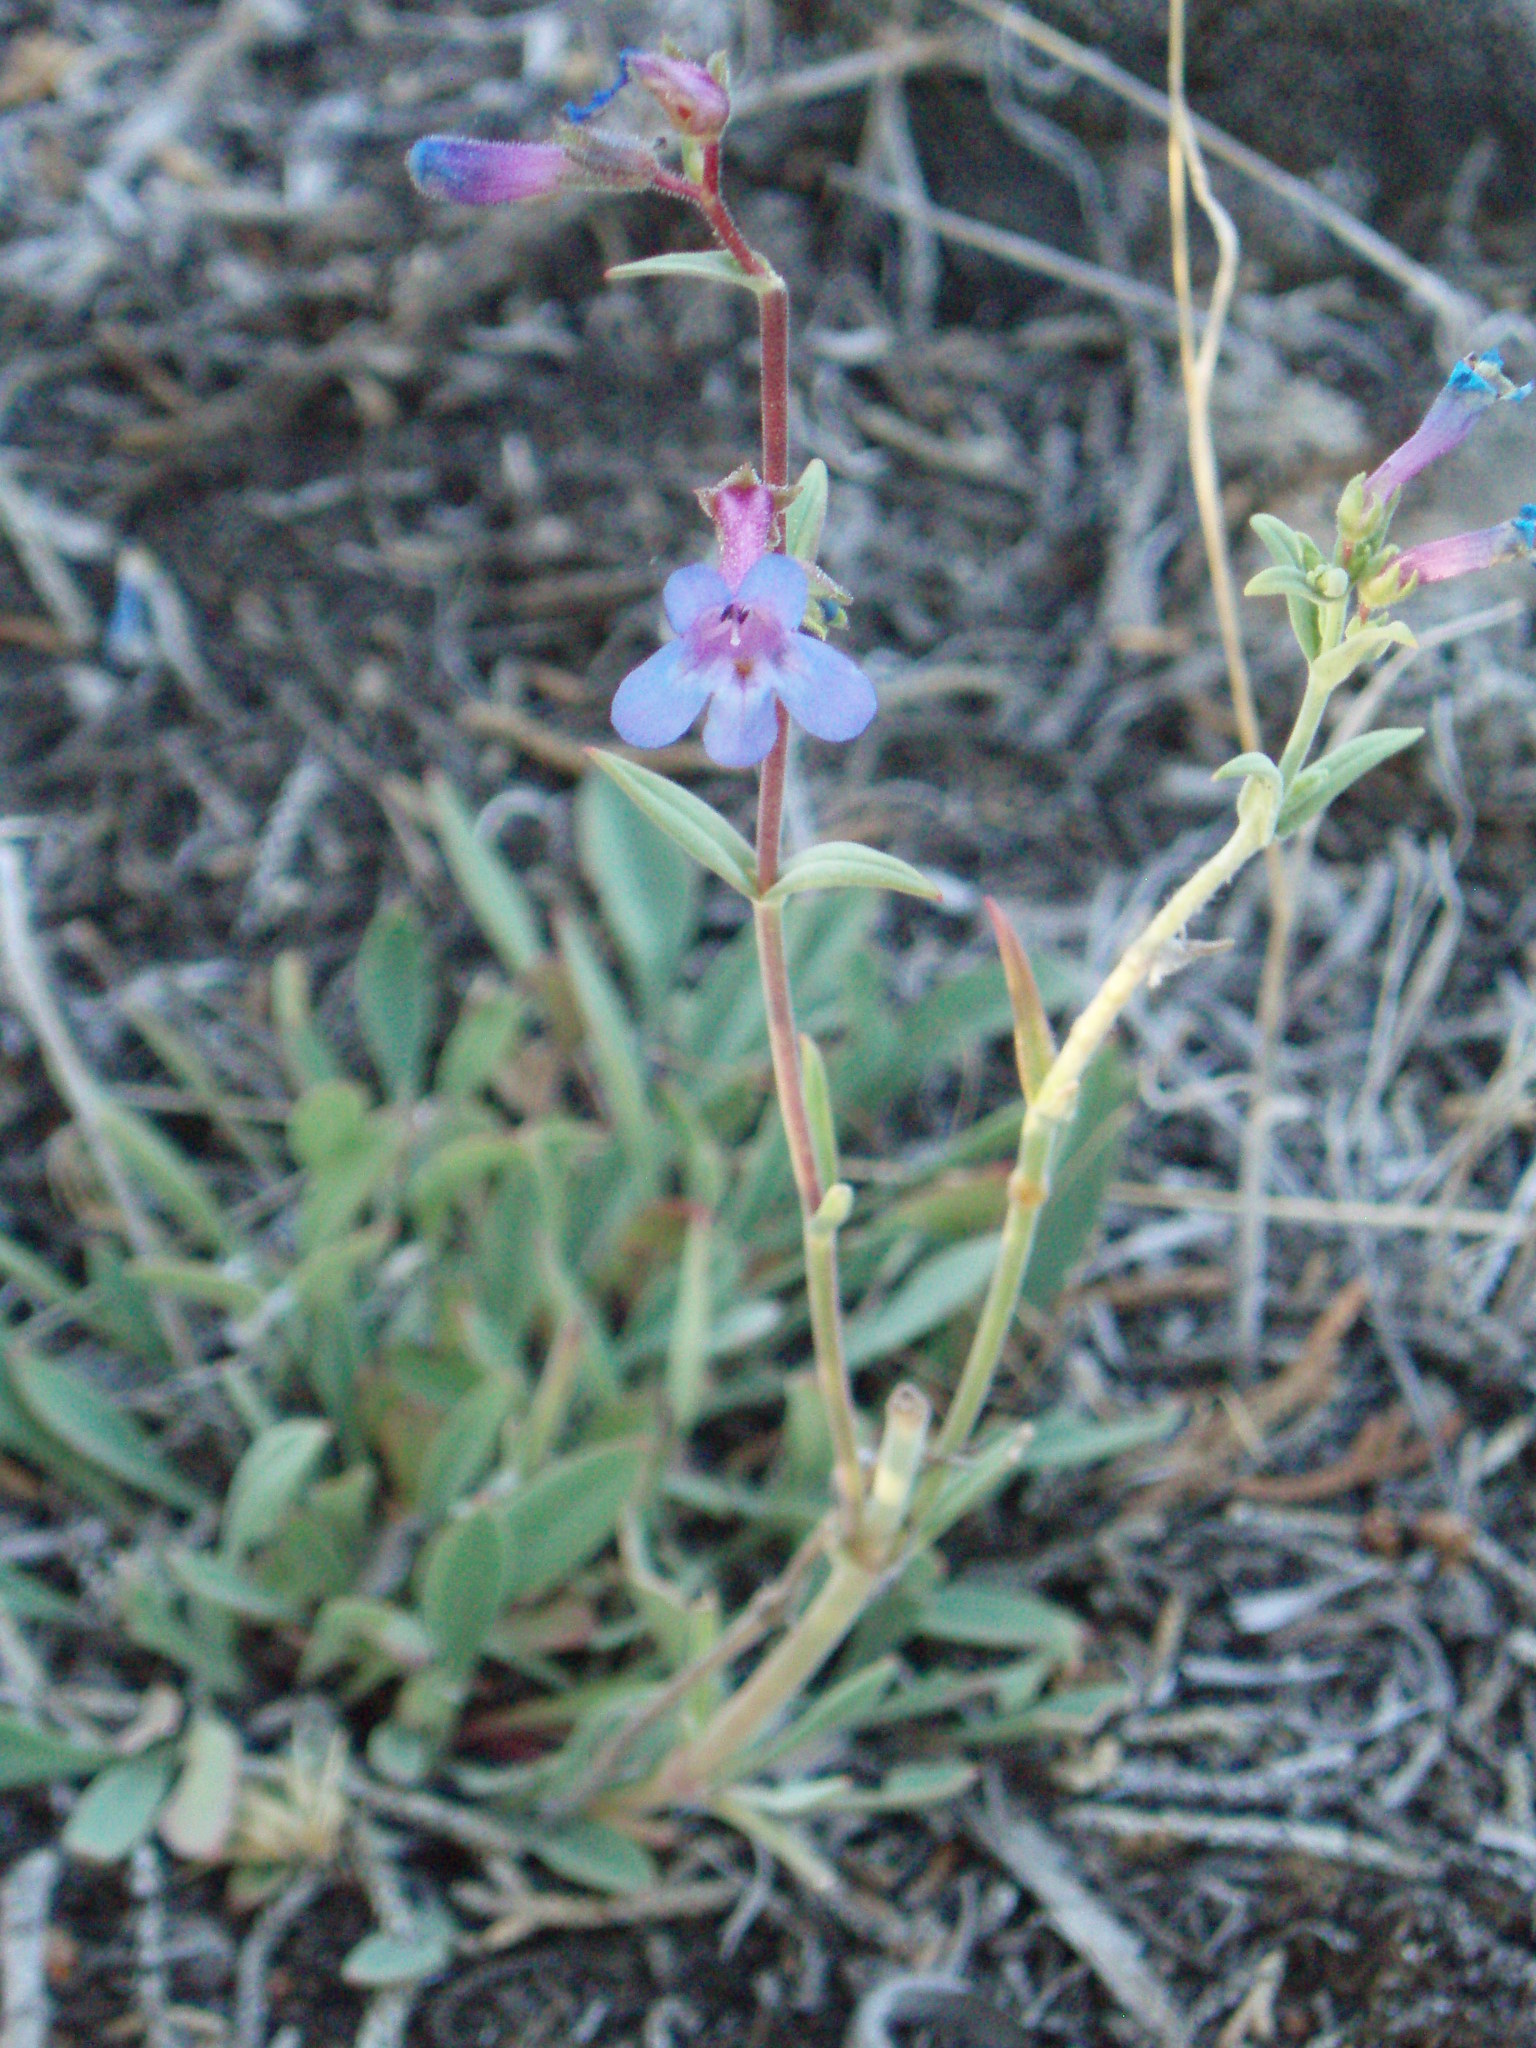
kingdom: Plantae
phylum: Tracheophyta
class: Magnoliopsida
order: Lamiales
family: Plantaginaceae
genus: Penstemon
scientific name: Penstemon humilis
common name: Low penstemon
